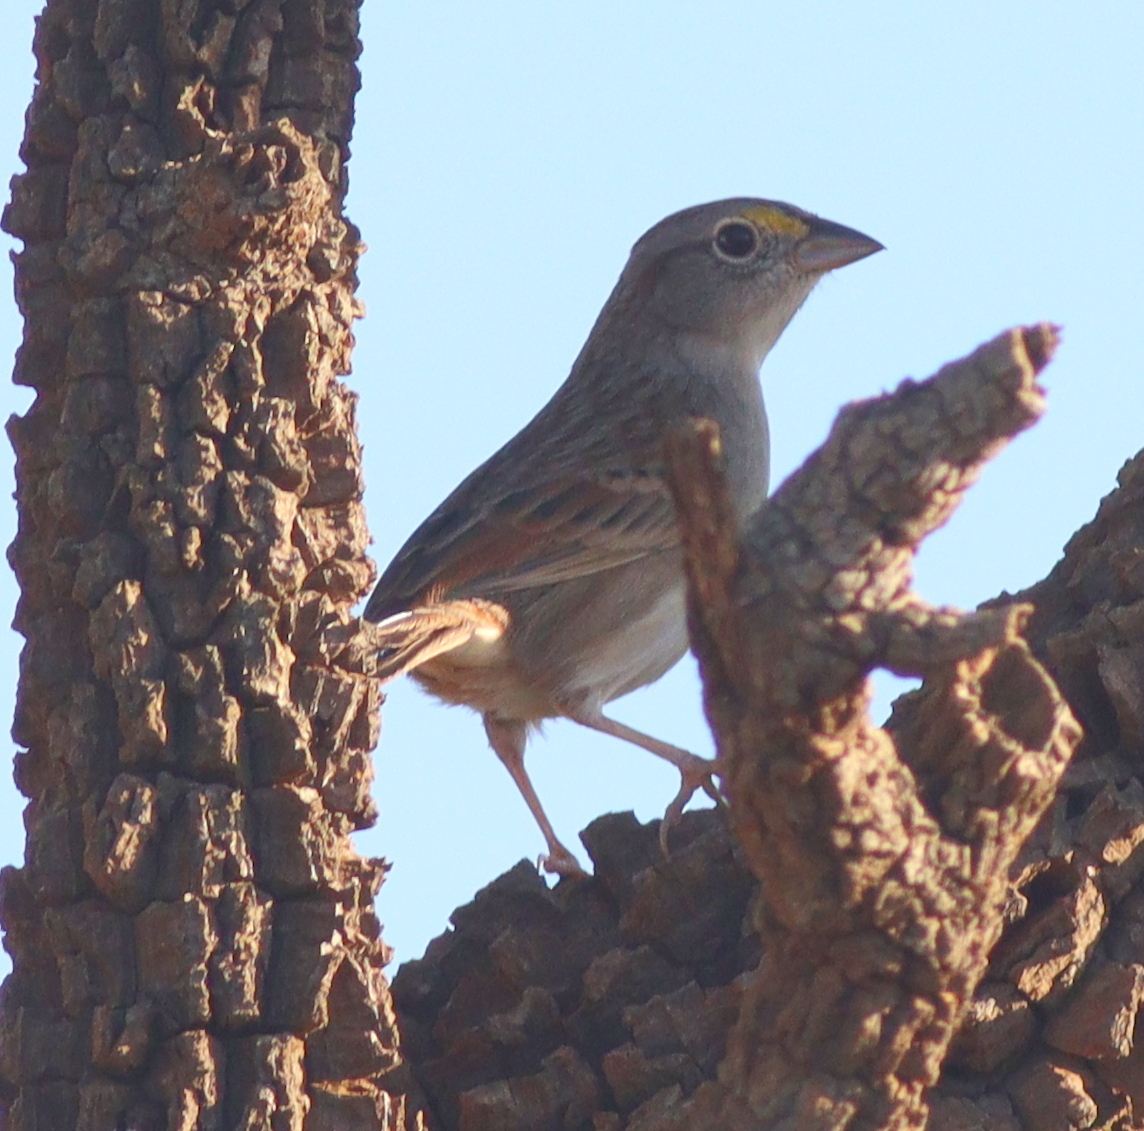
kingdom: Animalia
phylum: Chordata
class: Aves
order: Passeriformes
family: Passerellidae
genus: Ammodramus
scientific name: Ammodramus humeralis
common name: Grassland sparrow
